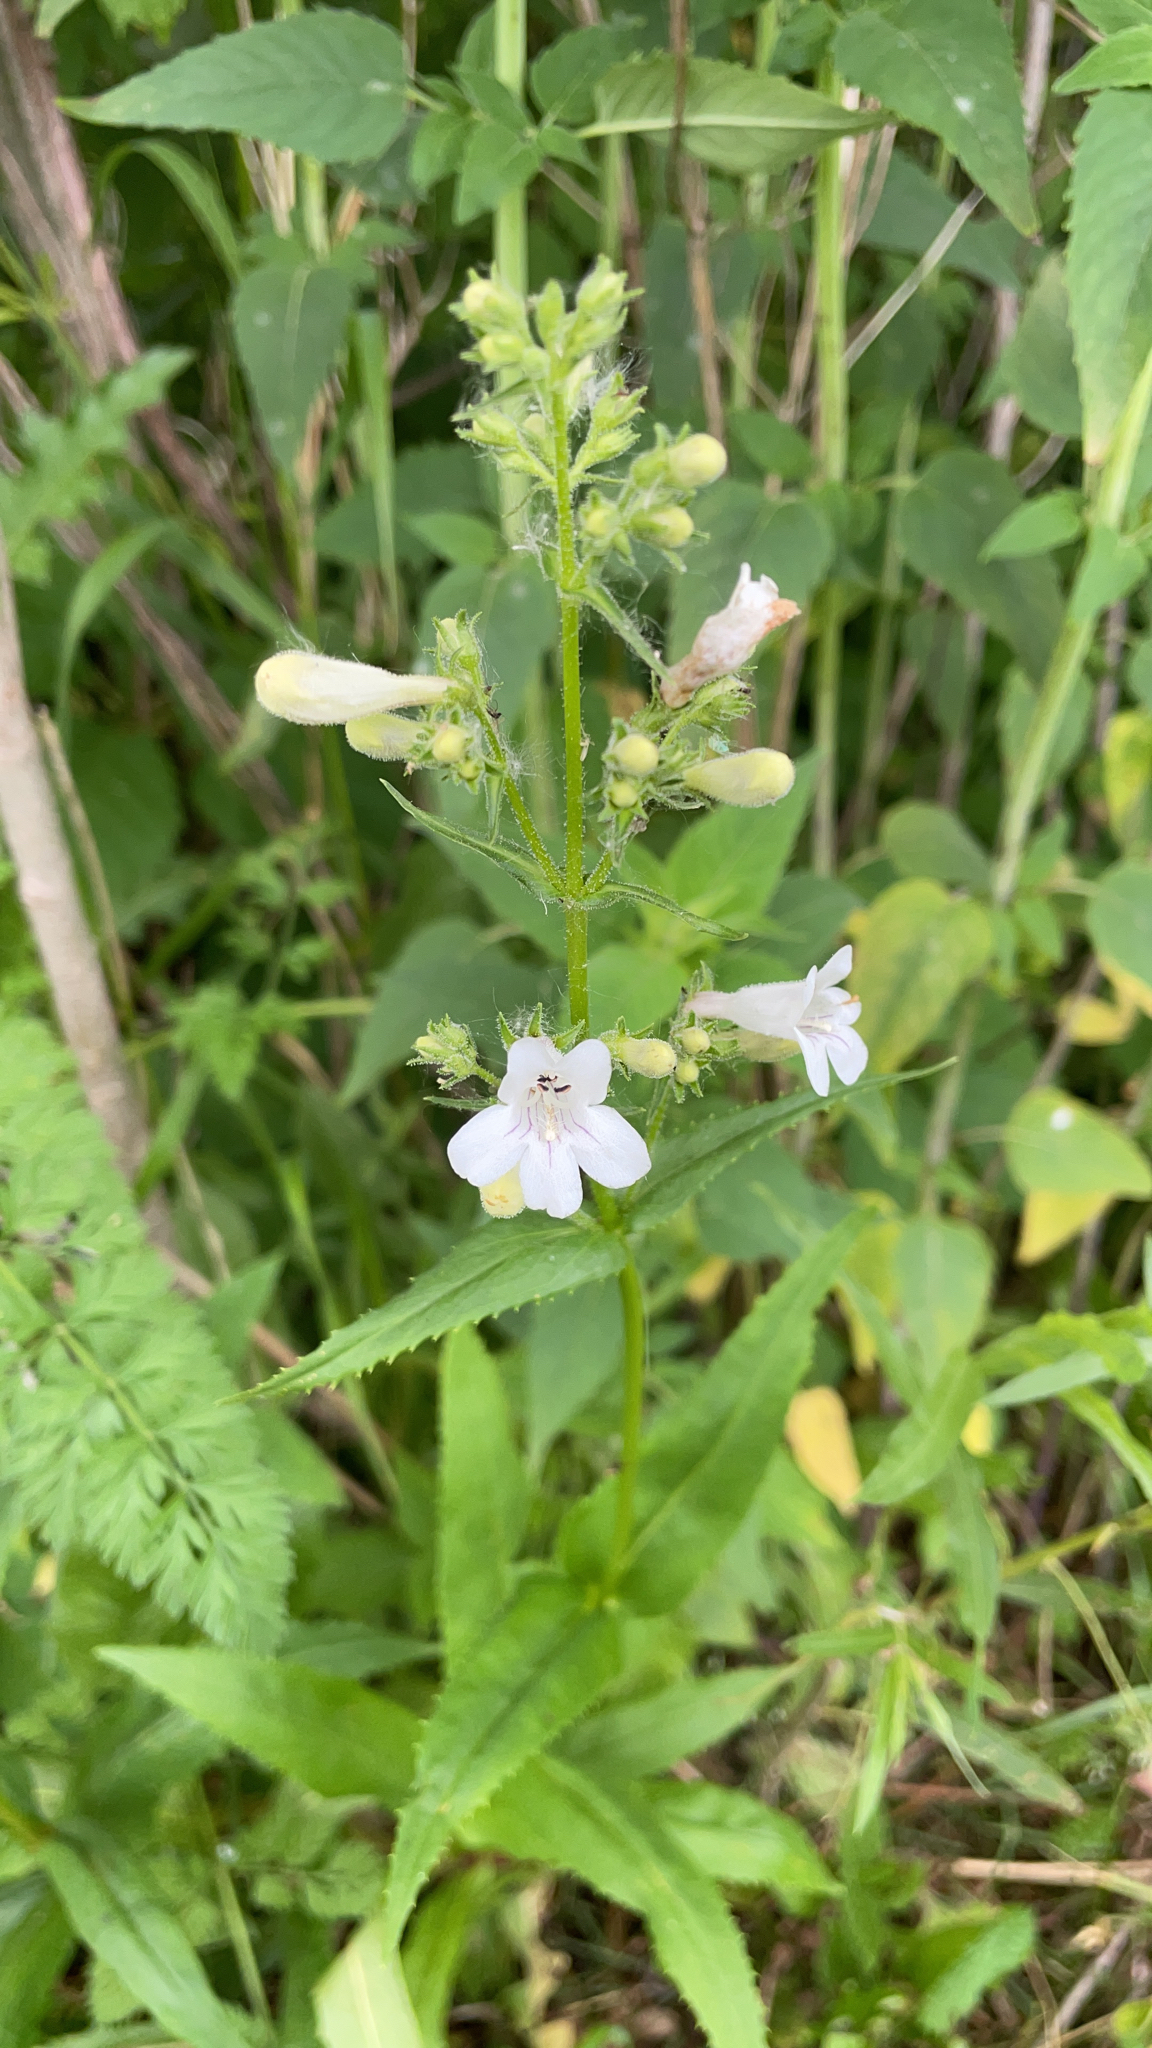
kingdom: Plantae
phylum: Tracheophyta
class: Magnoliopsida
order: Lamiales
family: Plantaginaceae
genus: Penstemon
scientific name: Penstemon digitalis
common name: Foxglove beardtongue
